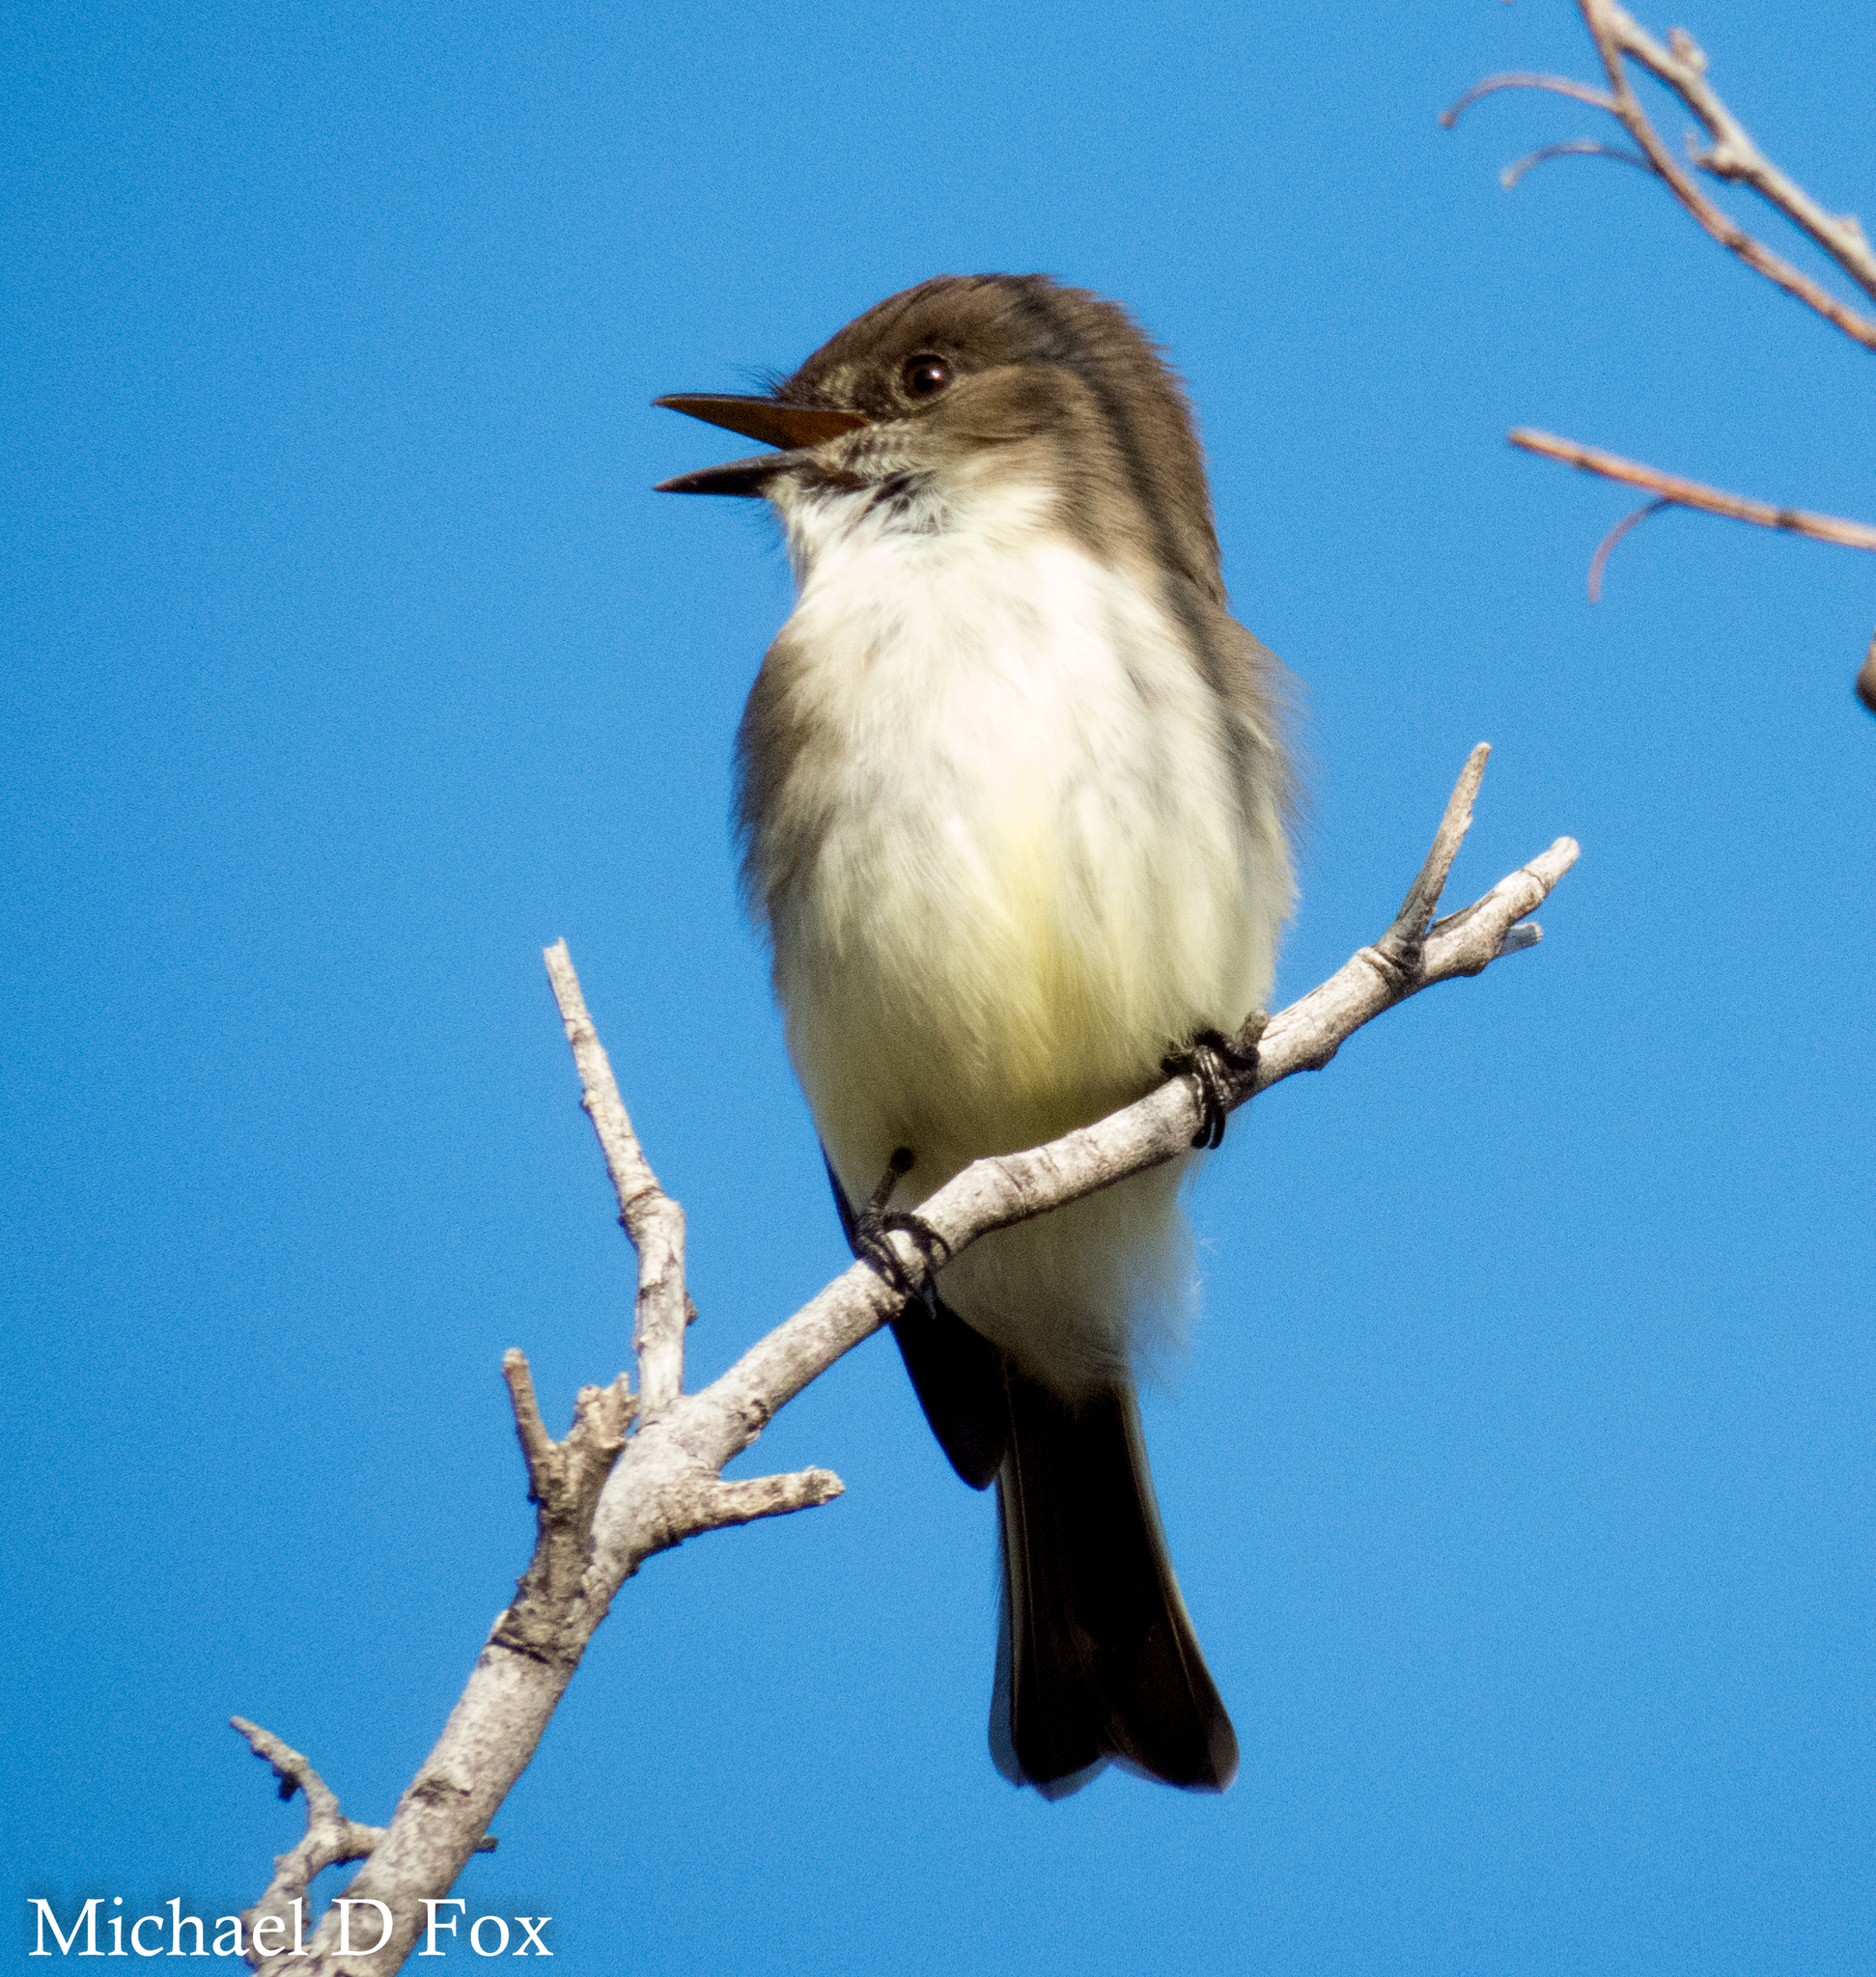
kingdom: Animalia
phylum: Chordata
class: Aves
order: Passeriformes
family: Tyrannidae
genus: Sayornis
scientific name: Sayornis phoebe
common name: Eastern phoebe
